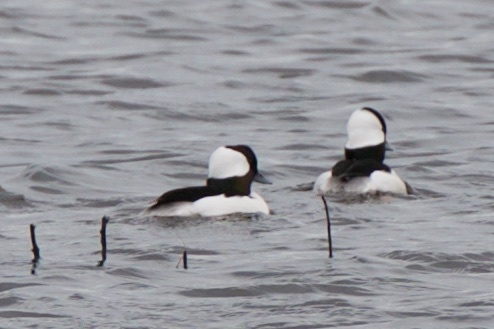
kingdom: Animalia
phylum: Chordata
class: Aves
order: Anseriformes
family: Anatidae
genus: Bucephala
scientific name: Bucephala albeola
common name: Bufflehead
